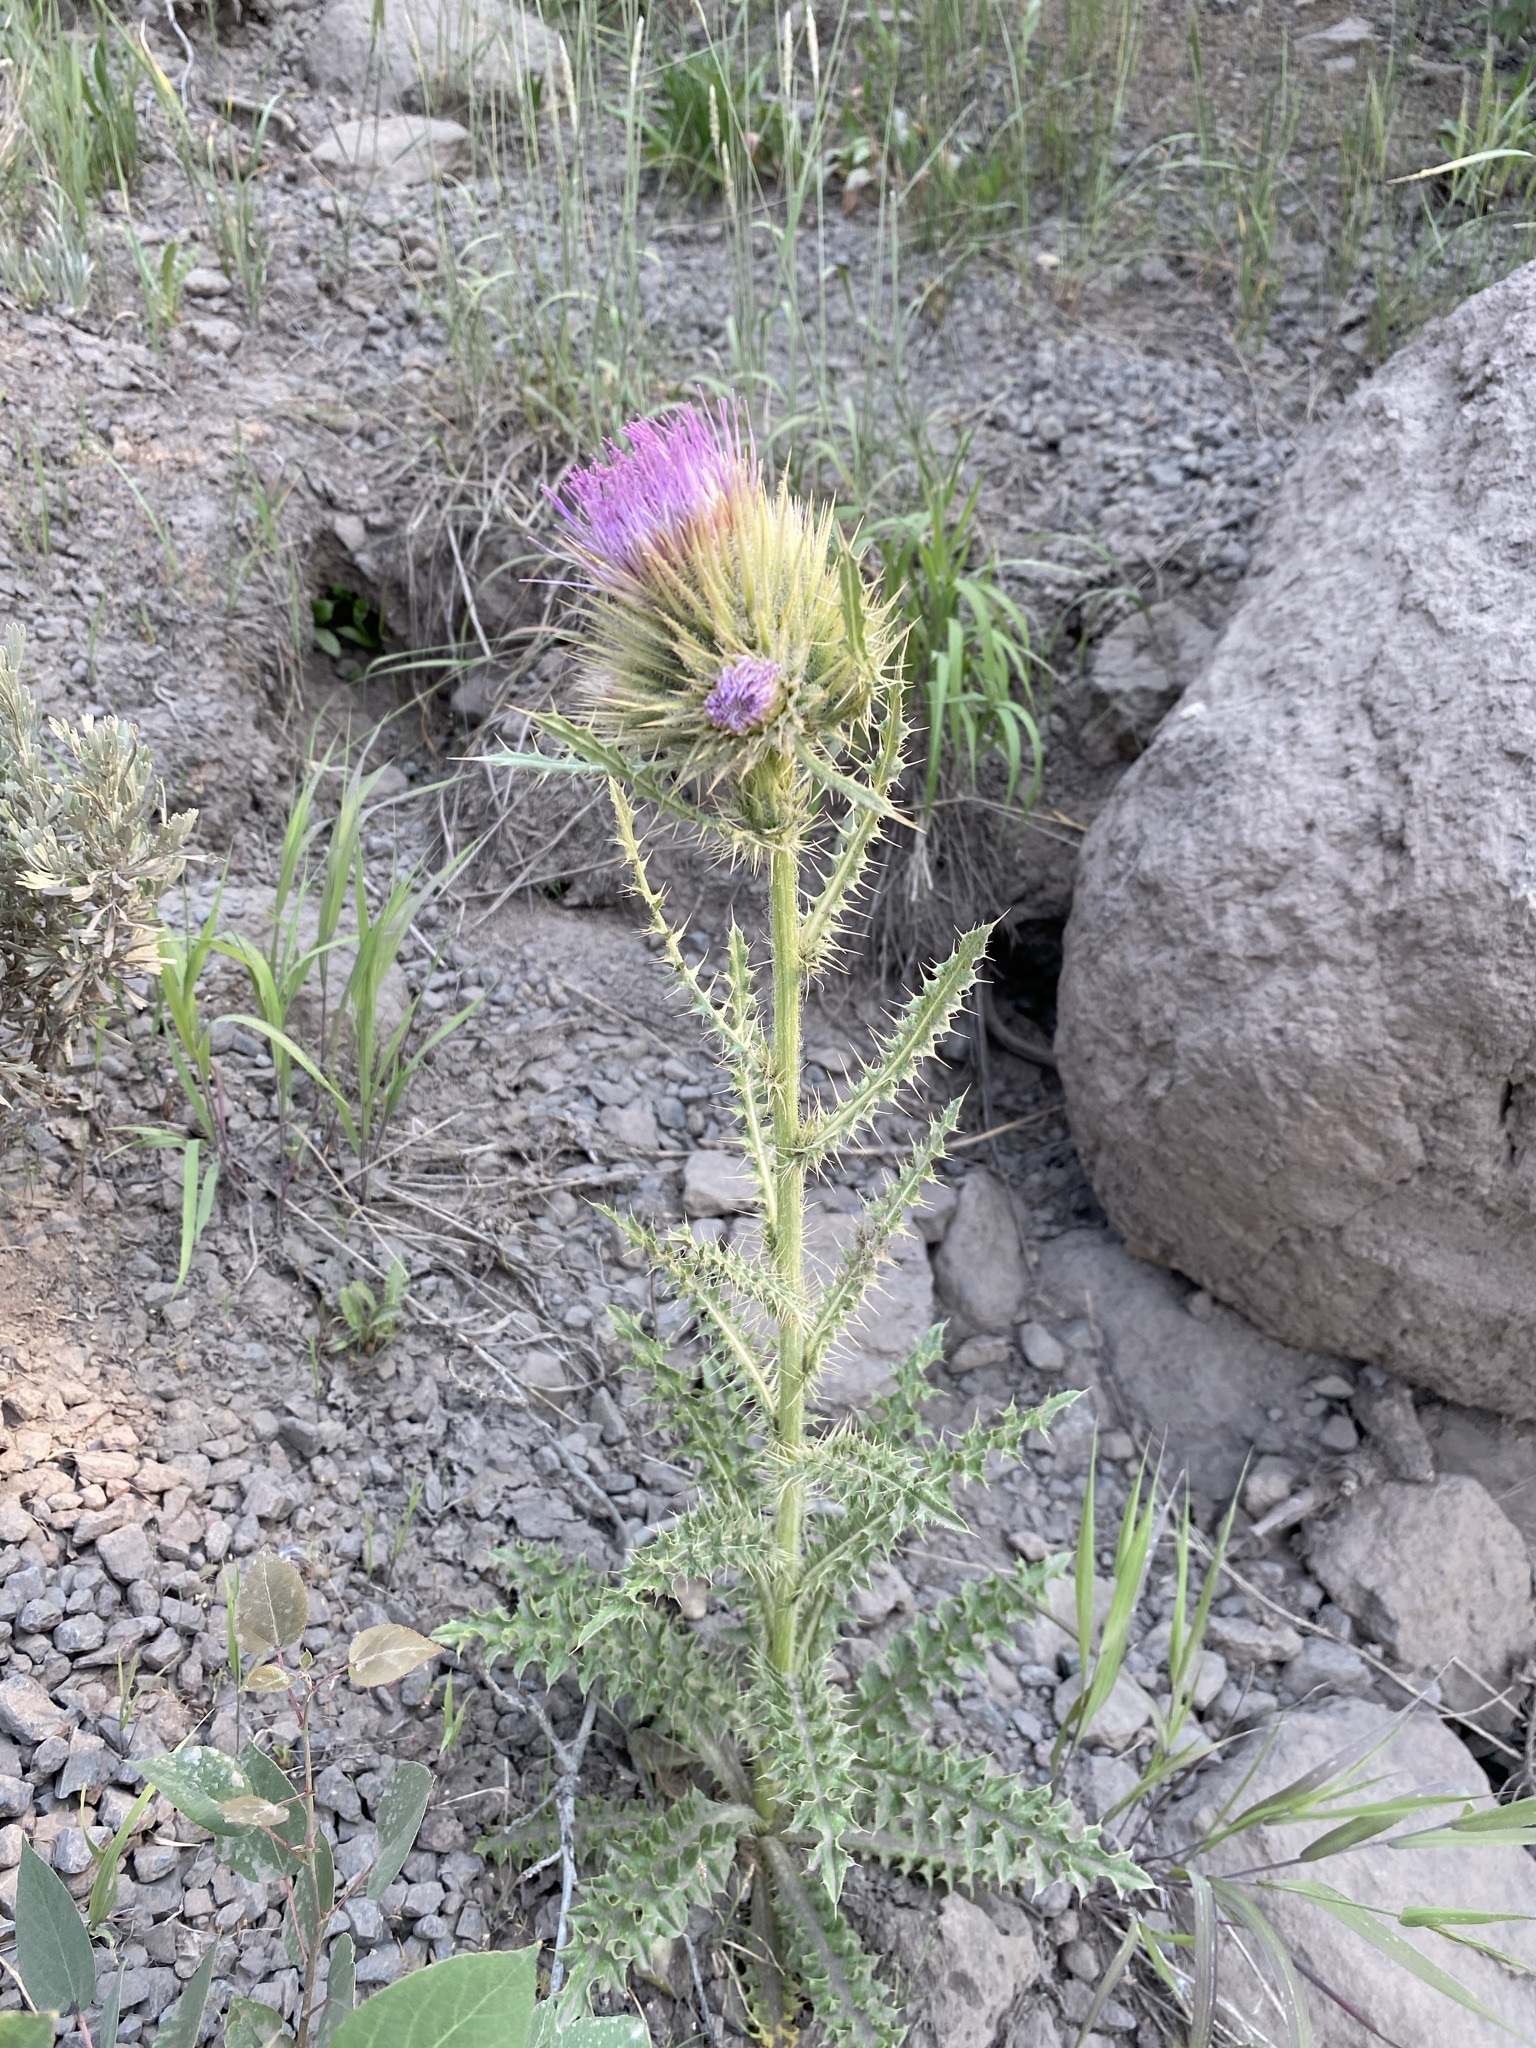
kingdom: Plantae
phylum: Tracheophyta
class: Magnoliopsida
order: Asterales
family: Asteraceae
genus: Cirsium
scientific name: Cirsium peckii
